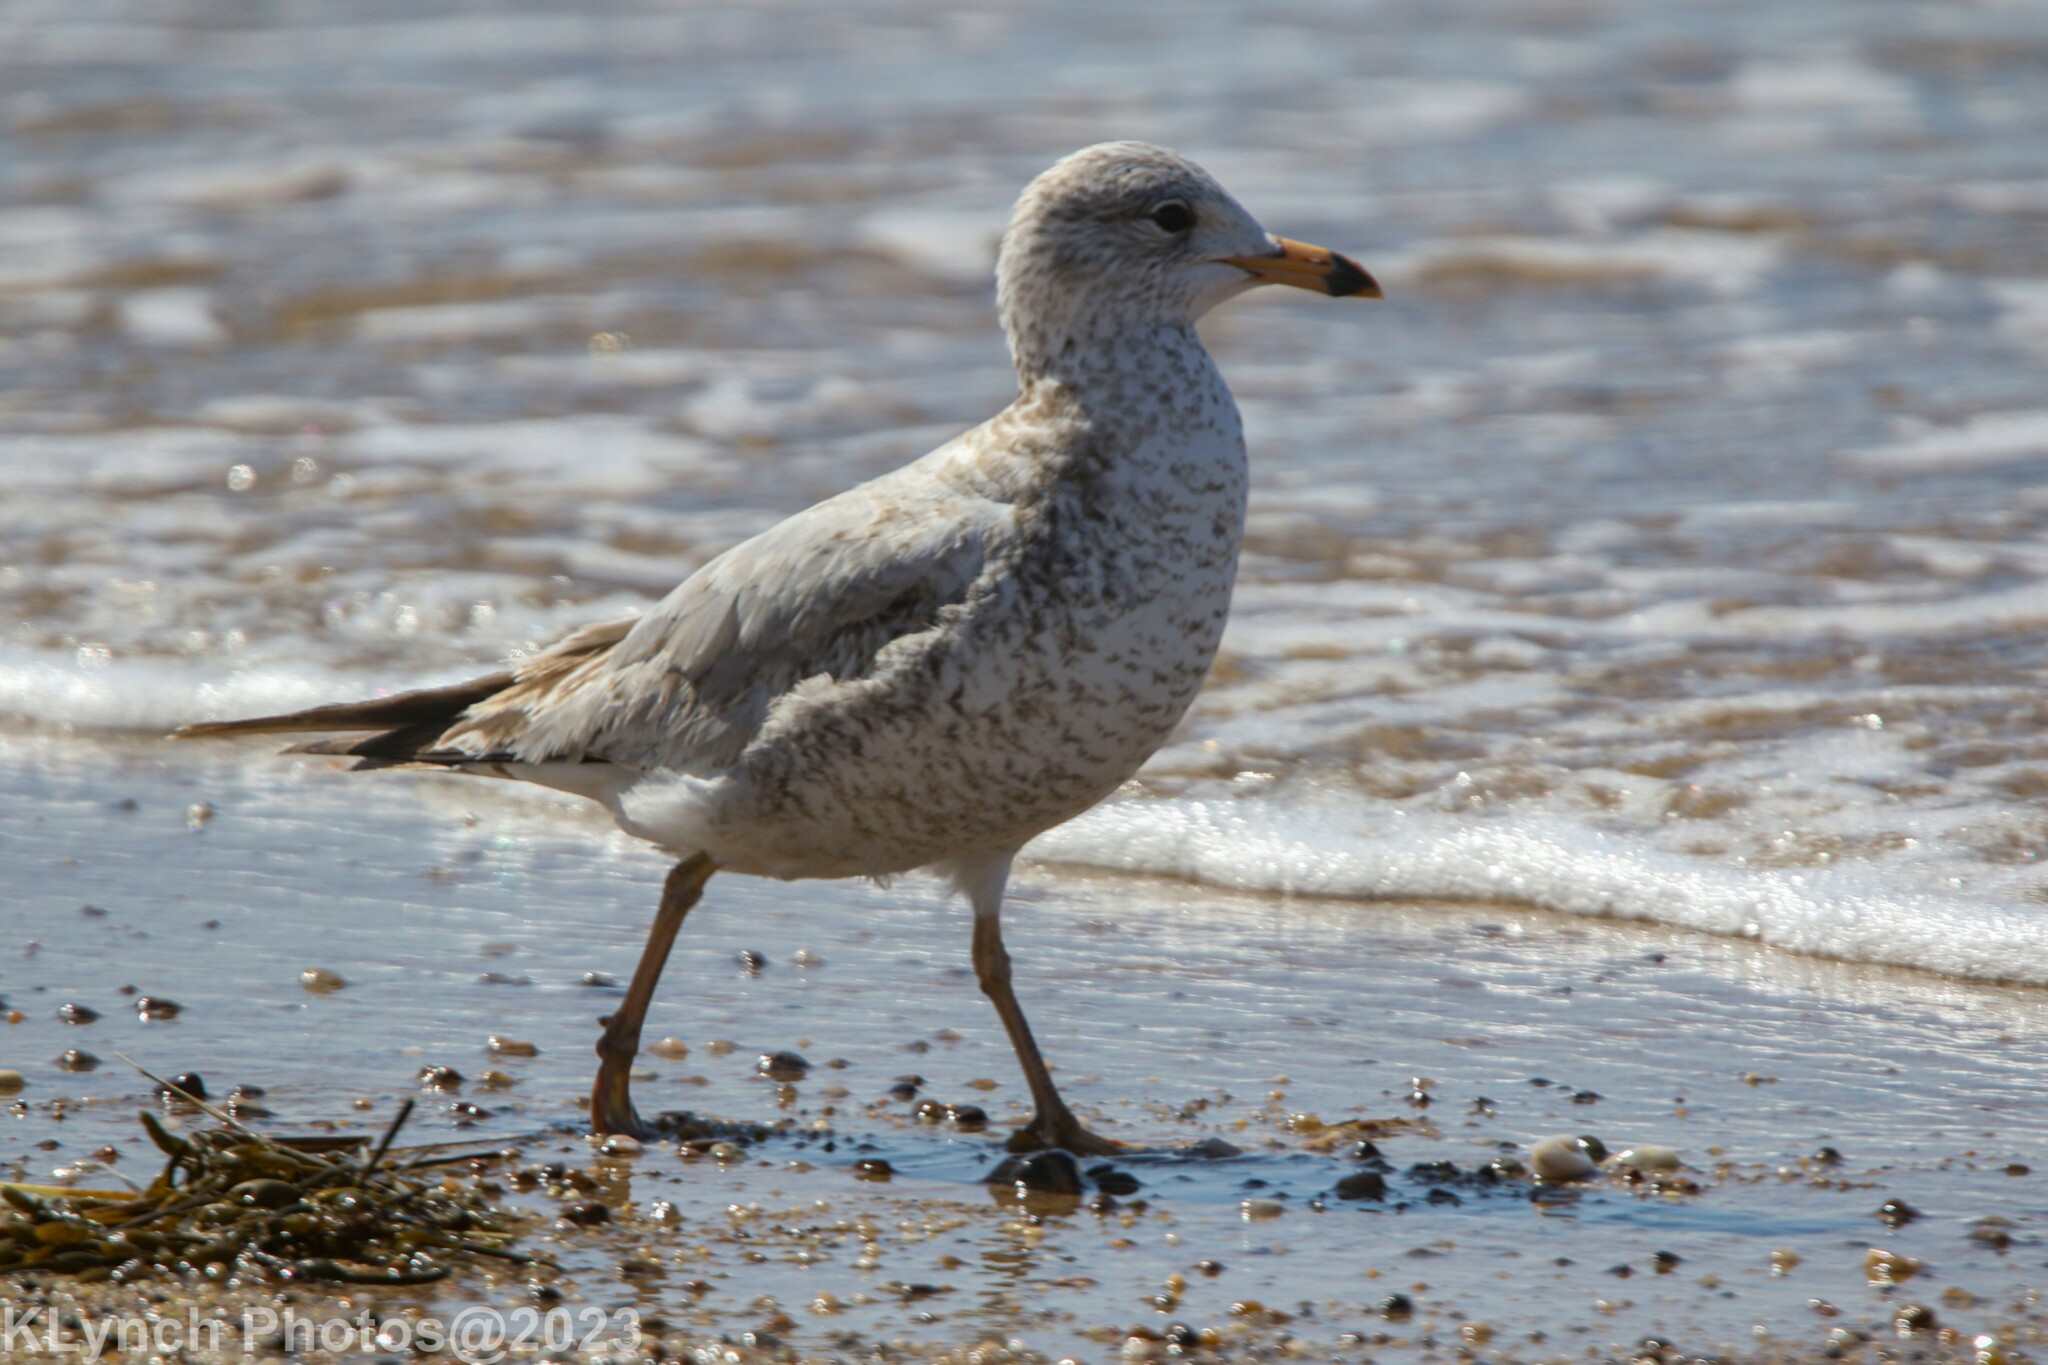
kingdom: Animalia
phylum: Chordata
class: Aves
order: Charadriiformes
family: Laridae
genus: Larus
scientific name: Larus delawarensis
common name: Ring-billed gull
